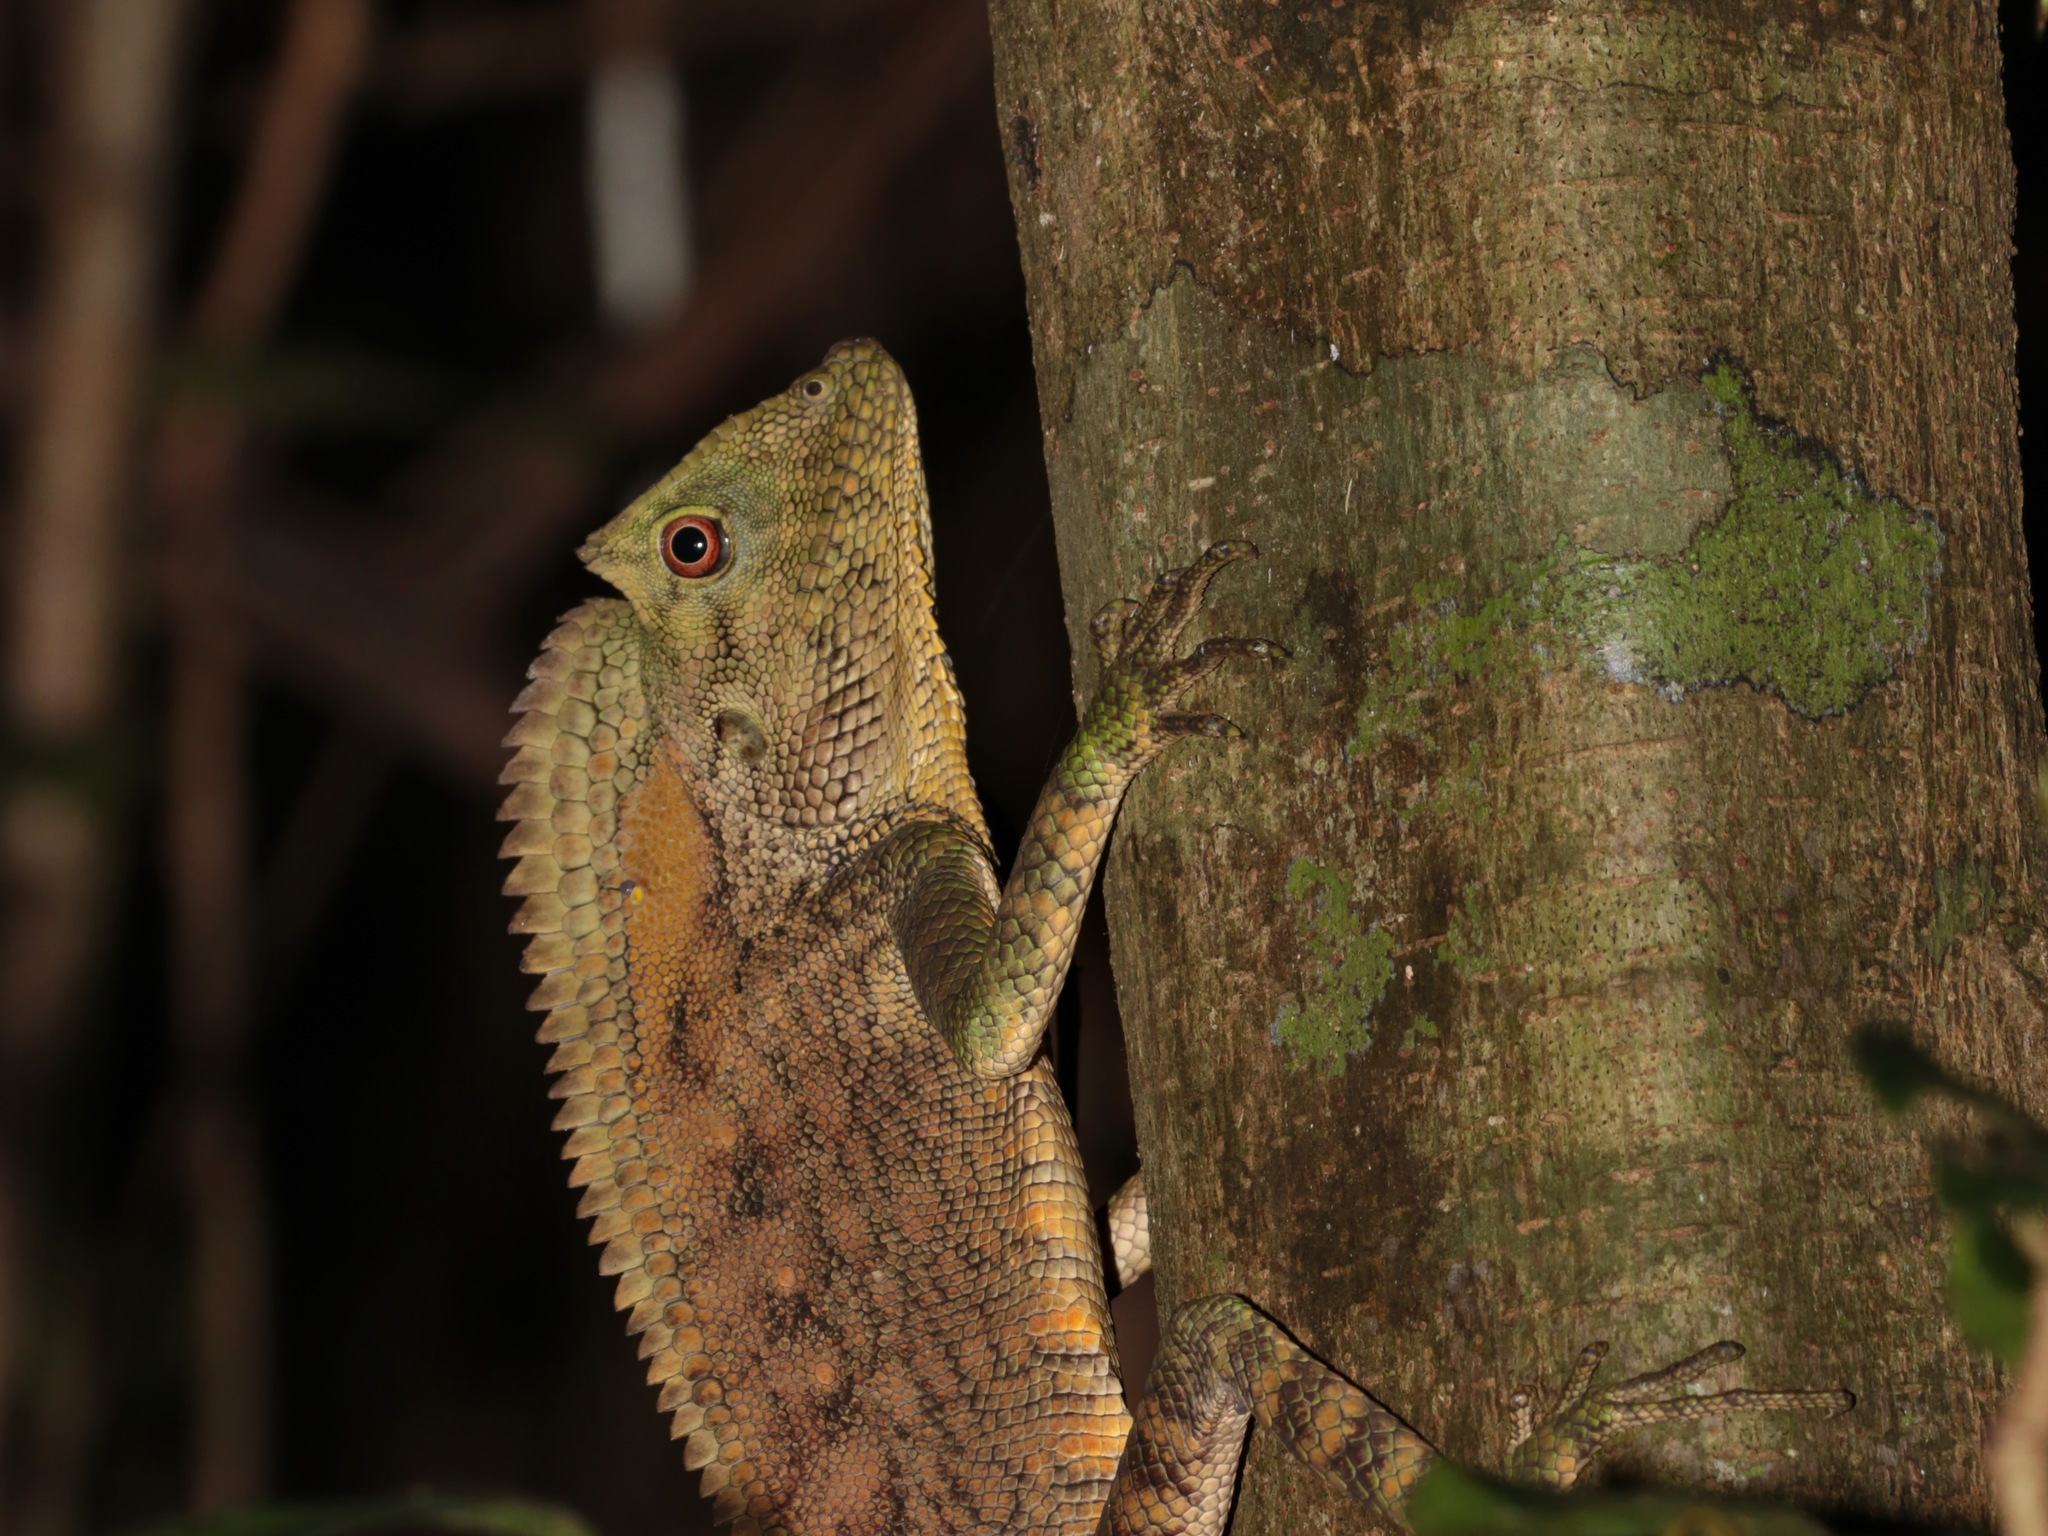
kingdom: Animalia
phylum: Chordata
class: Squamata
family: Agamidae
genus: Gonocephalus
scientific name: Gonocephalus abbotti
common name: Abbott’s anglehead lizard
